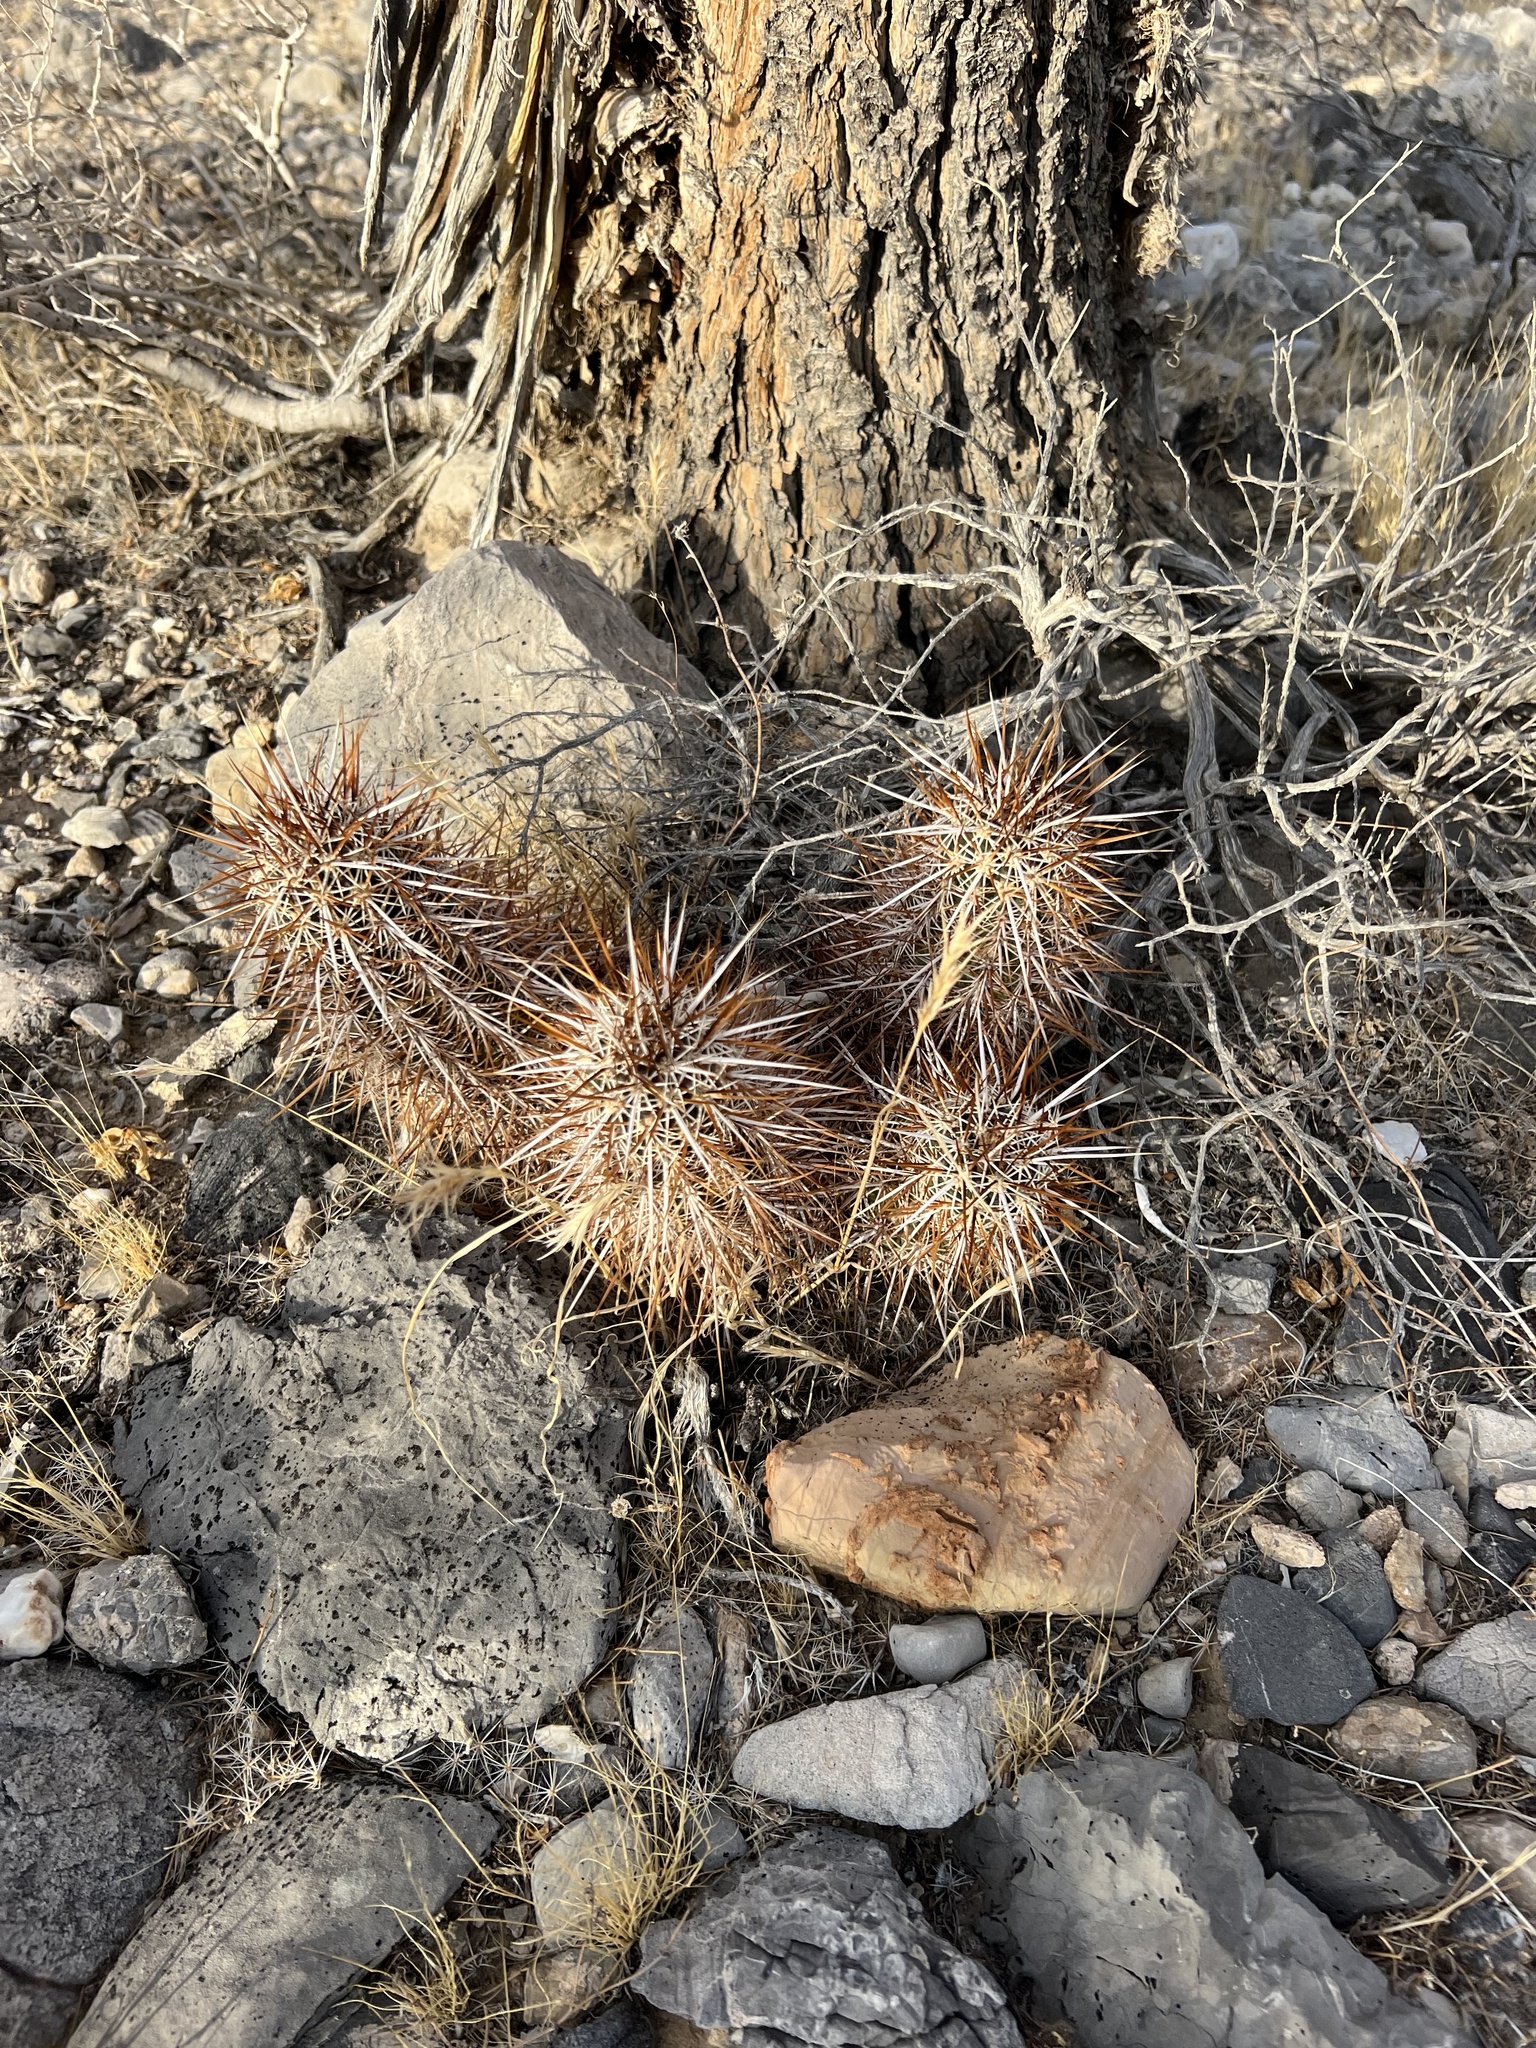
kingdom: Plantae
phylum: Tracheophyta
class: Magnoliopsida
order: Caryophyllales
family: Cactaceae
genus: Echinocereus
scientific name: Echinocereus engelmannii
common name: Engelmann's hedgehog cactus
